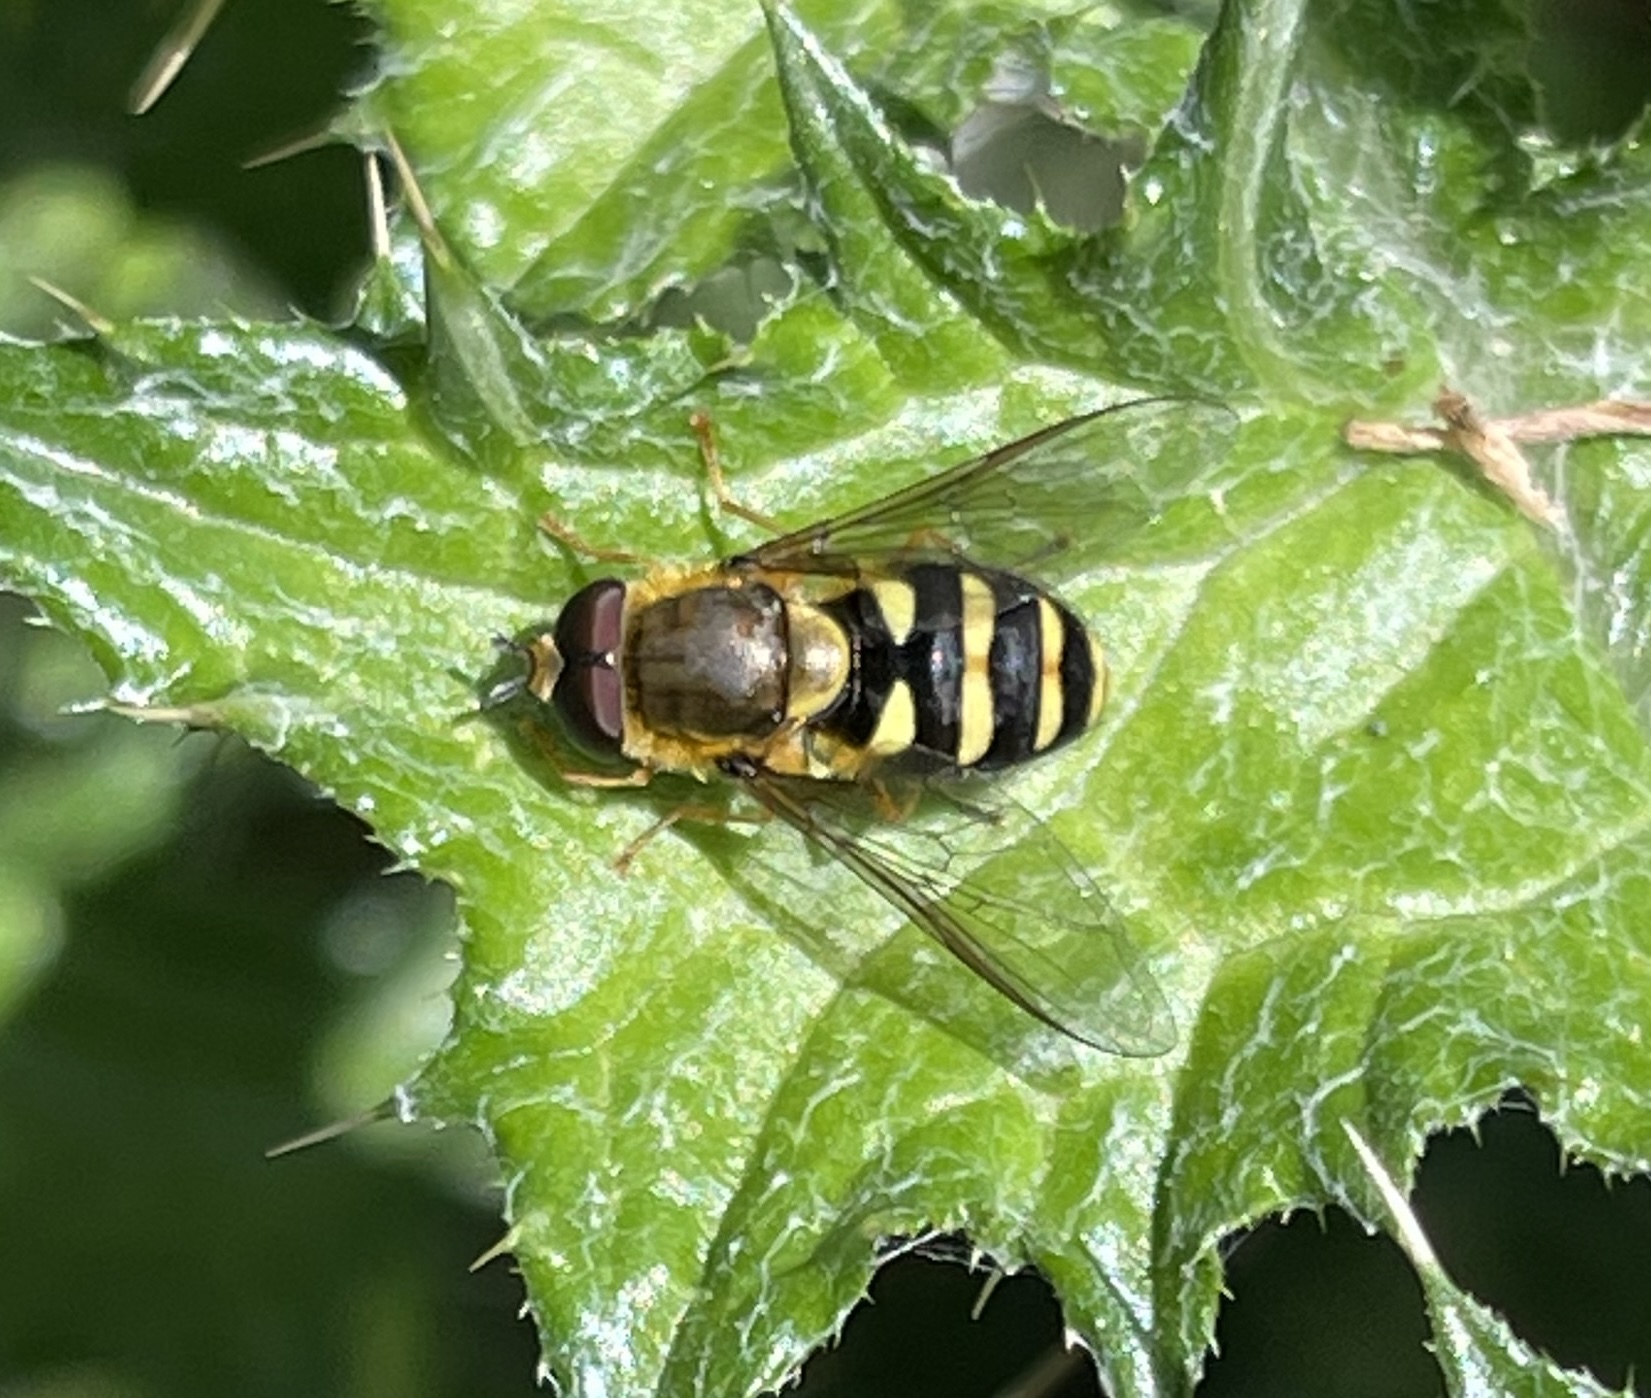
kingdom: Animalia
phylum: Arthropoda
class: Insecta
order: Diptera
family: Syrphidae
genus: Syrphus
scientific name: Syrphus opinator
